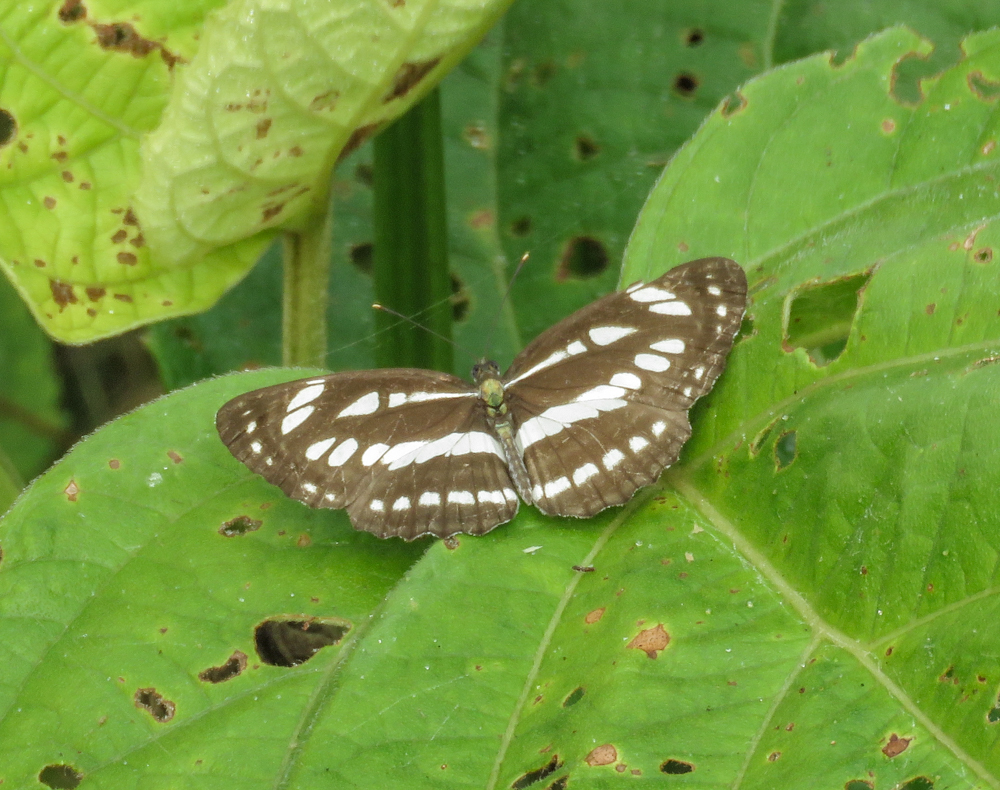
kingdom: Animalia
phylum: Arthropoda
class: Insecta
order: Lepidoptera
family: Nymphalidae
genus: Neptis
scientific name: Neptis hylas
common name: Common sailer
